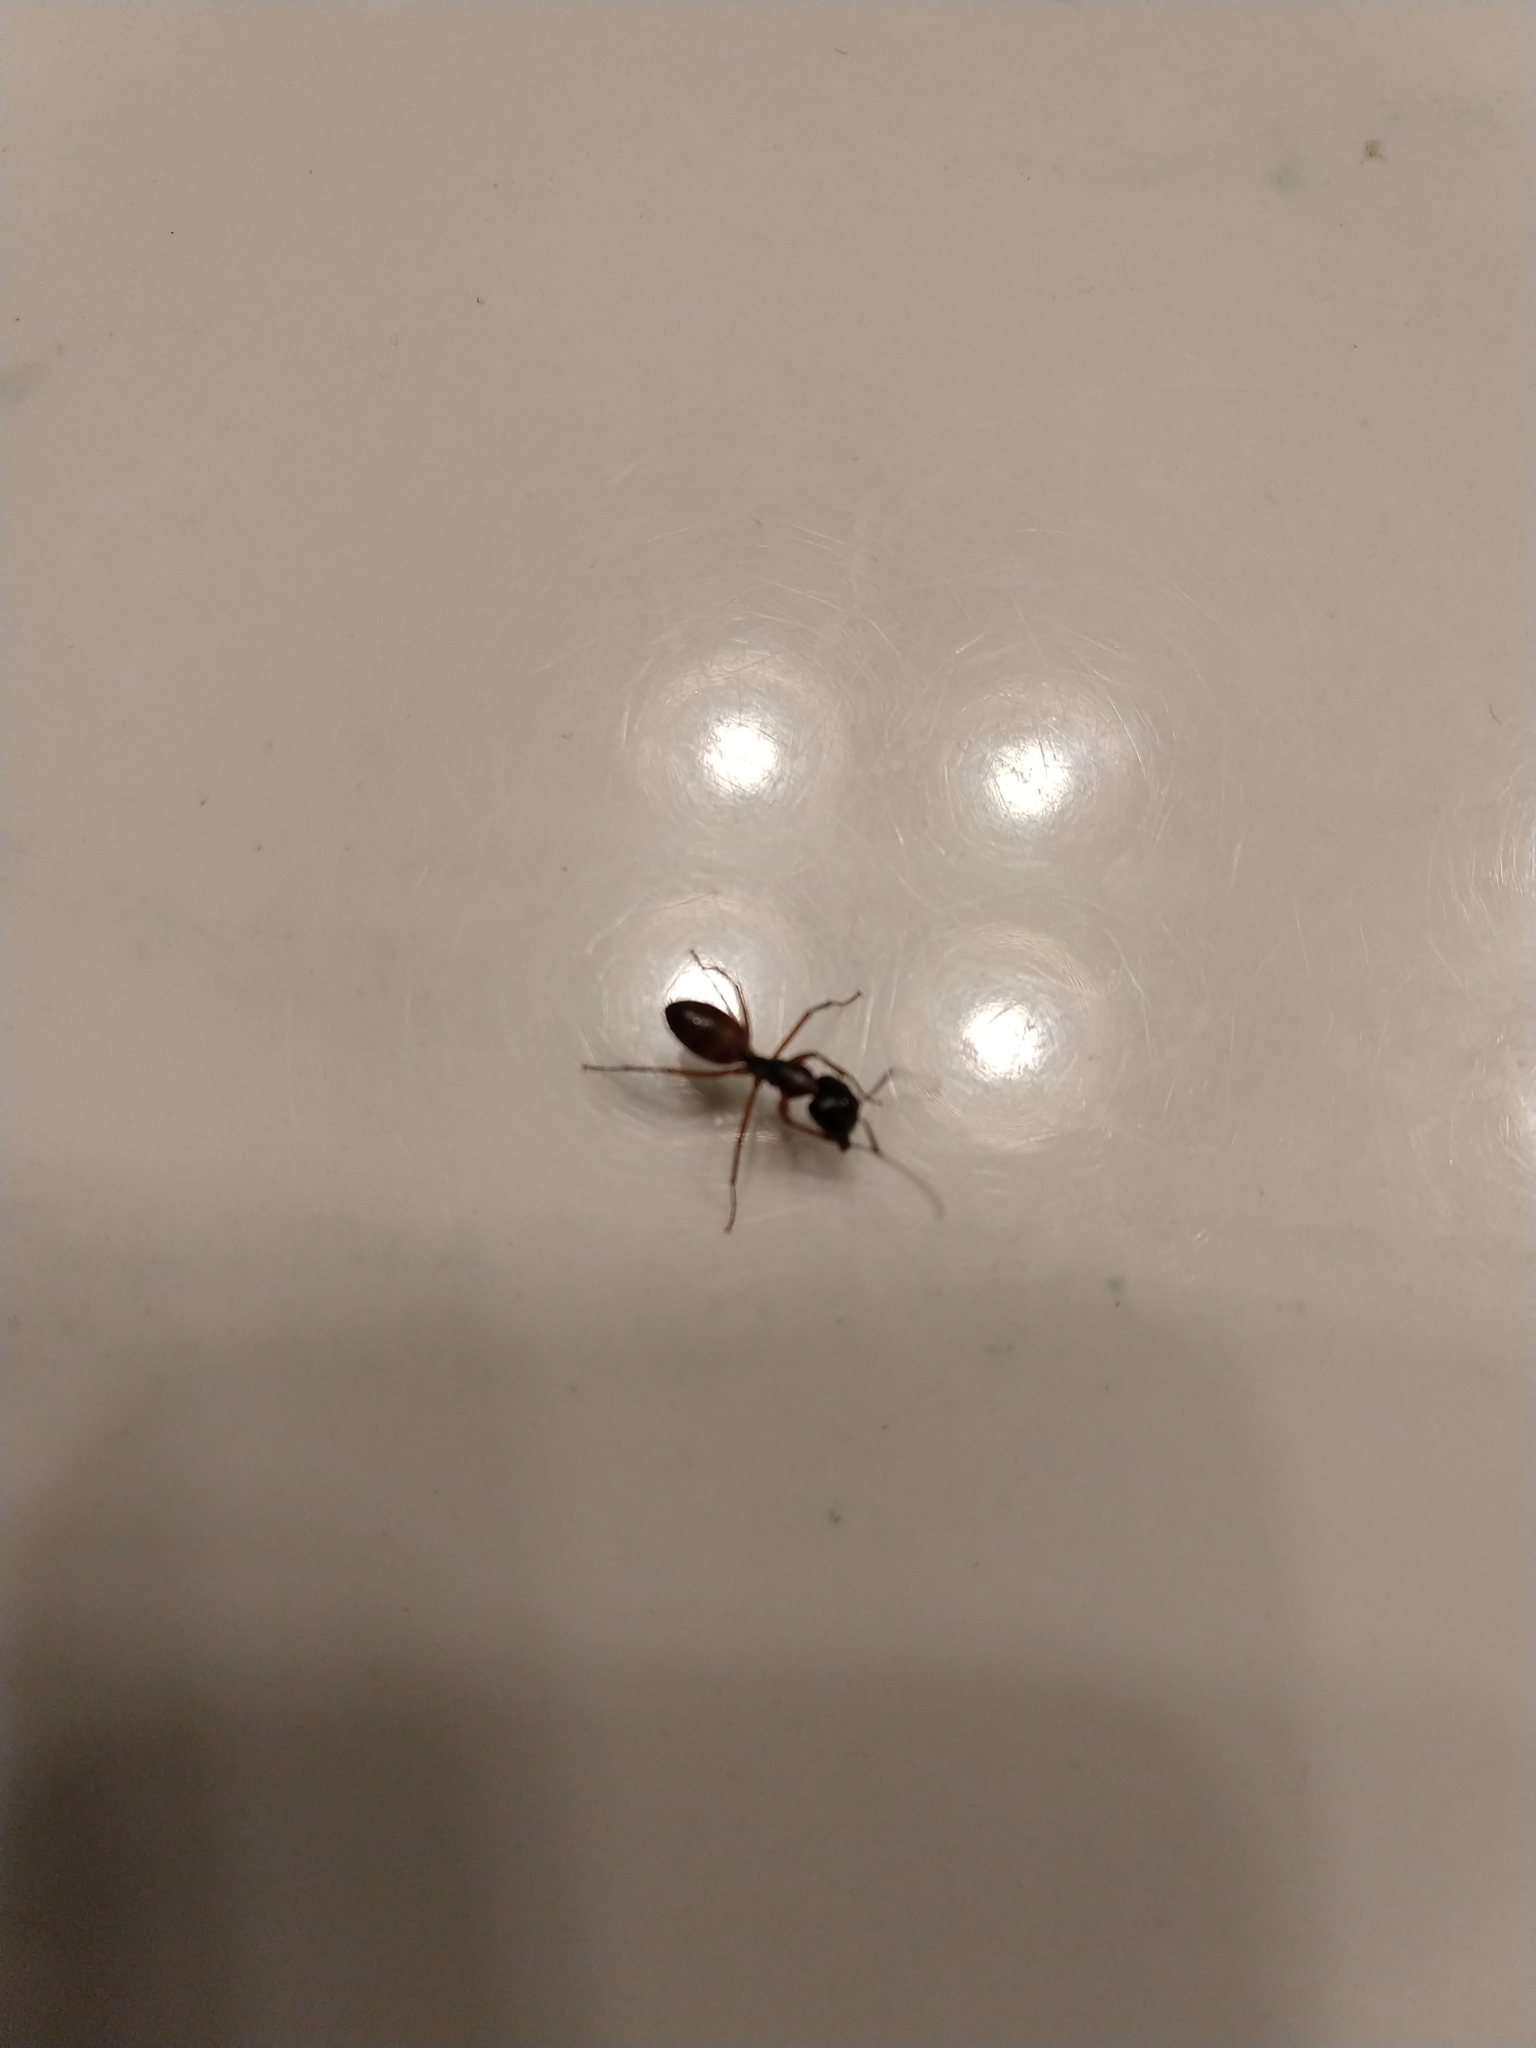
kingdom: Animalia
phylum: Arthropoda
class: Insecta
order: Hymenoptera
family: Formicidae
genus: Camponotus
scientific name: Camponotus americanus
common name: American carpenter ant
